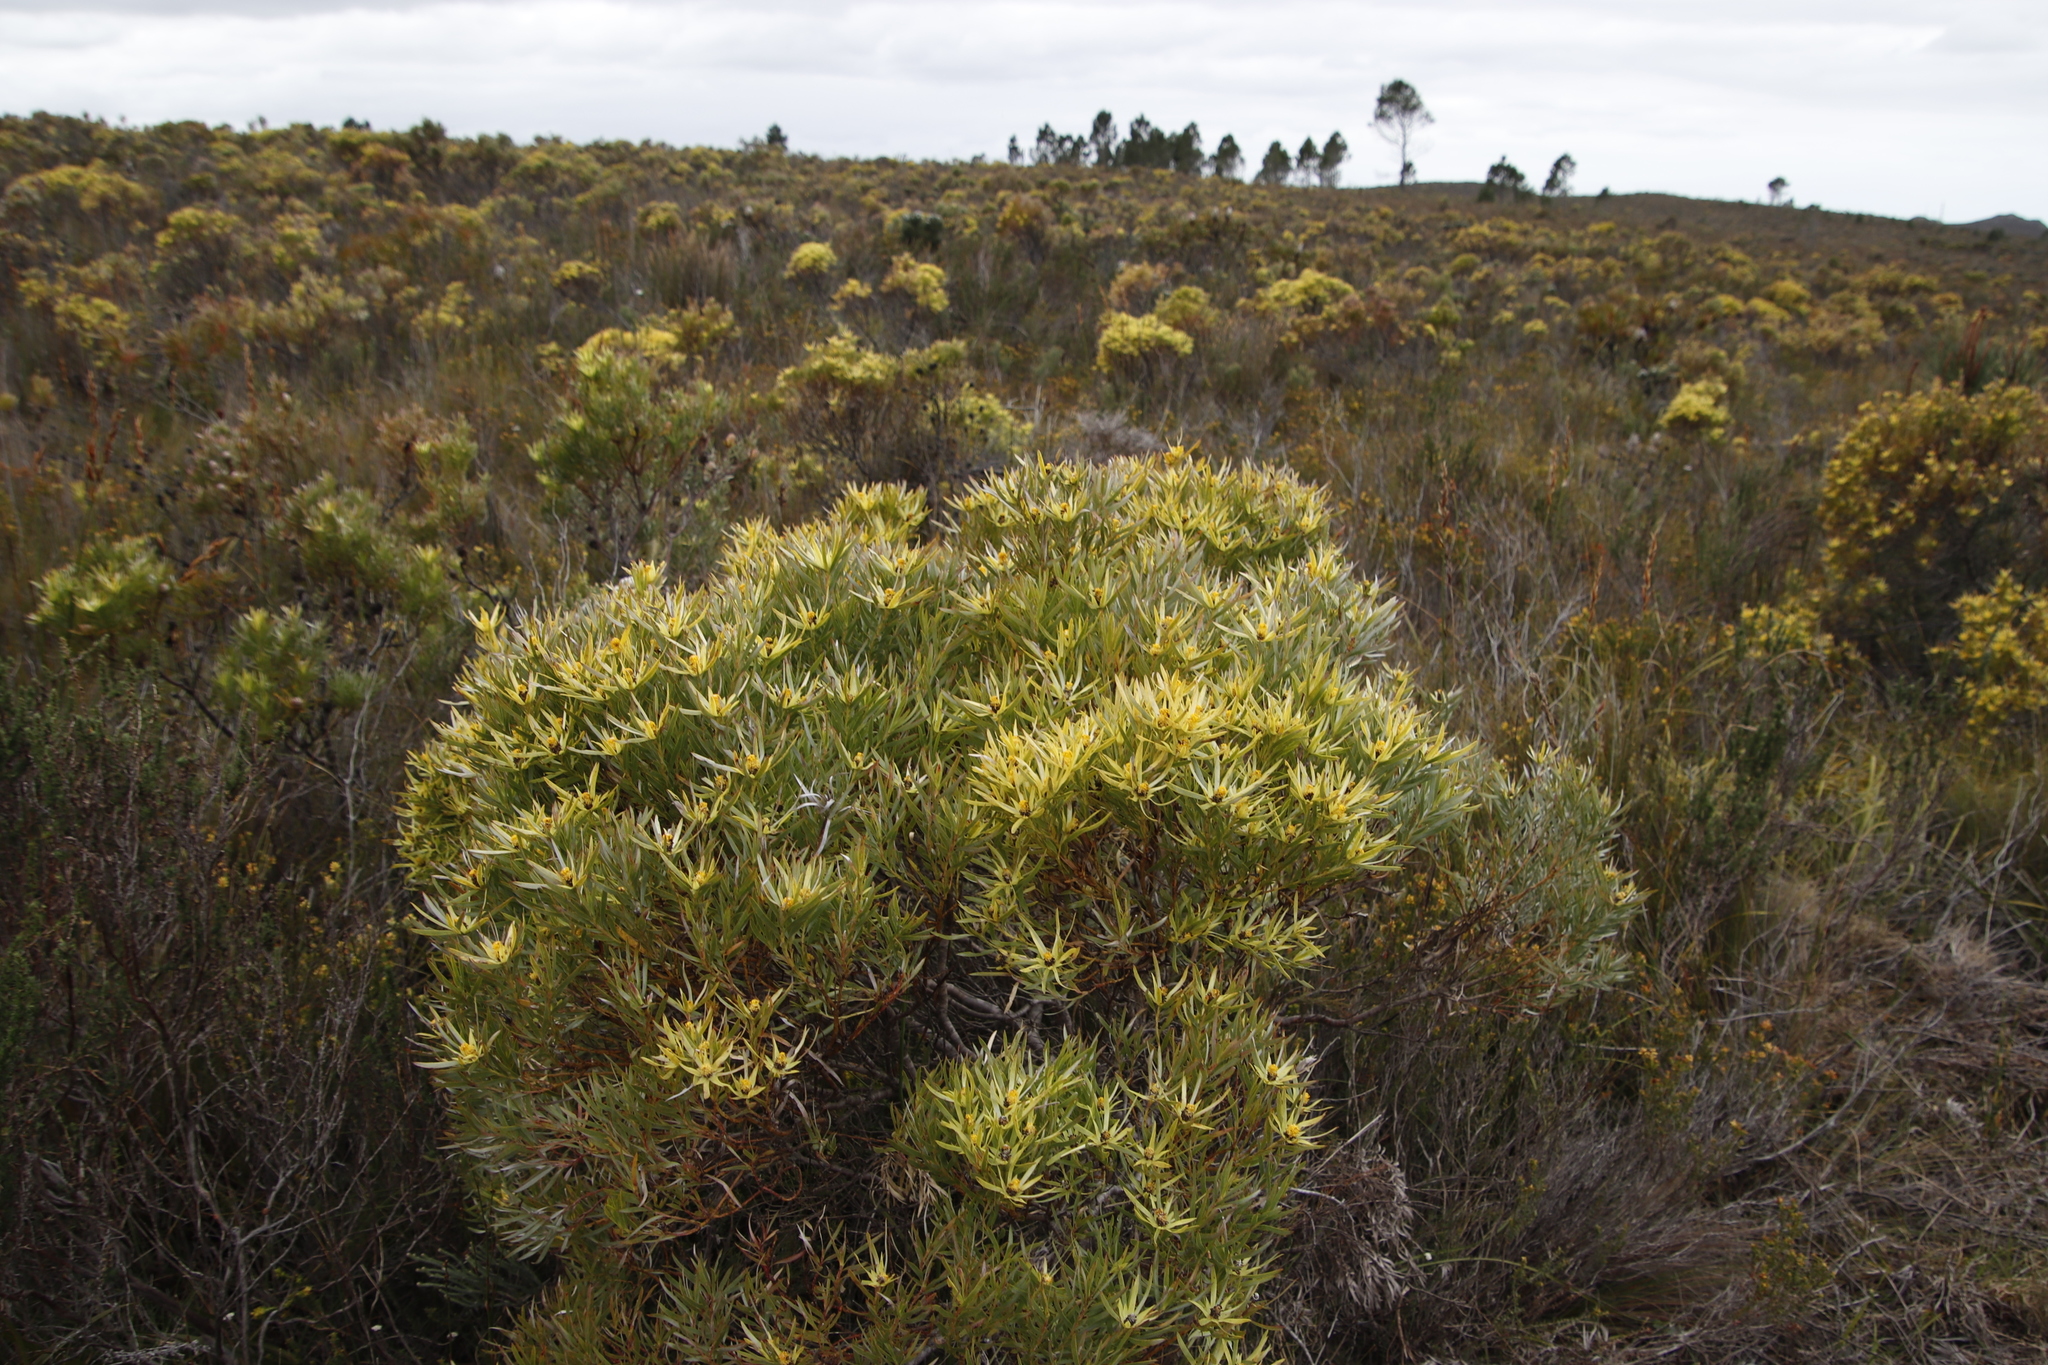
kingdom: Plantae
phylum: Tracheophyta
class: Magnoliopsida
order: Proteales
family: Proteaceae
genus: Leucadendron
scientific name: Leucadendron xanthoconus
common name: Sickle-leaf conebush
